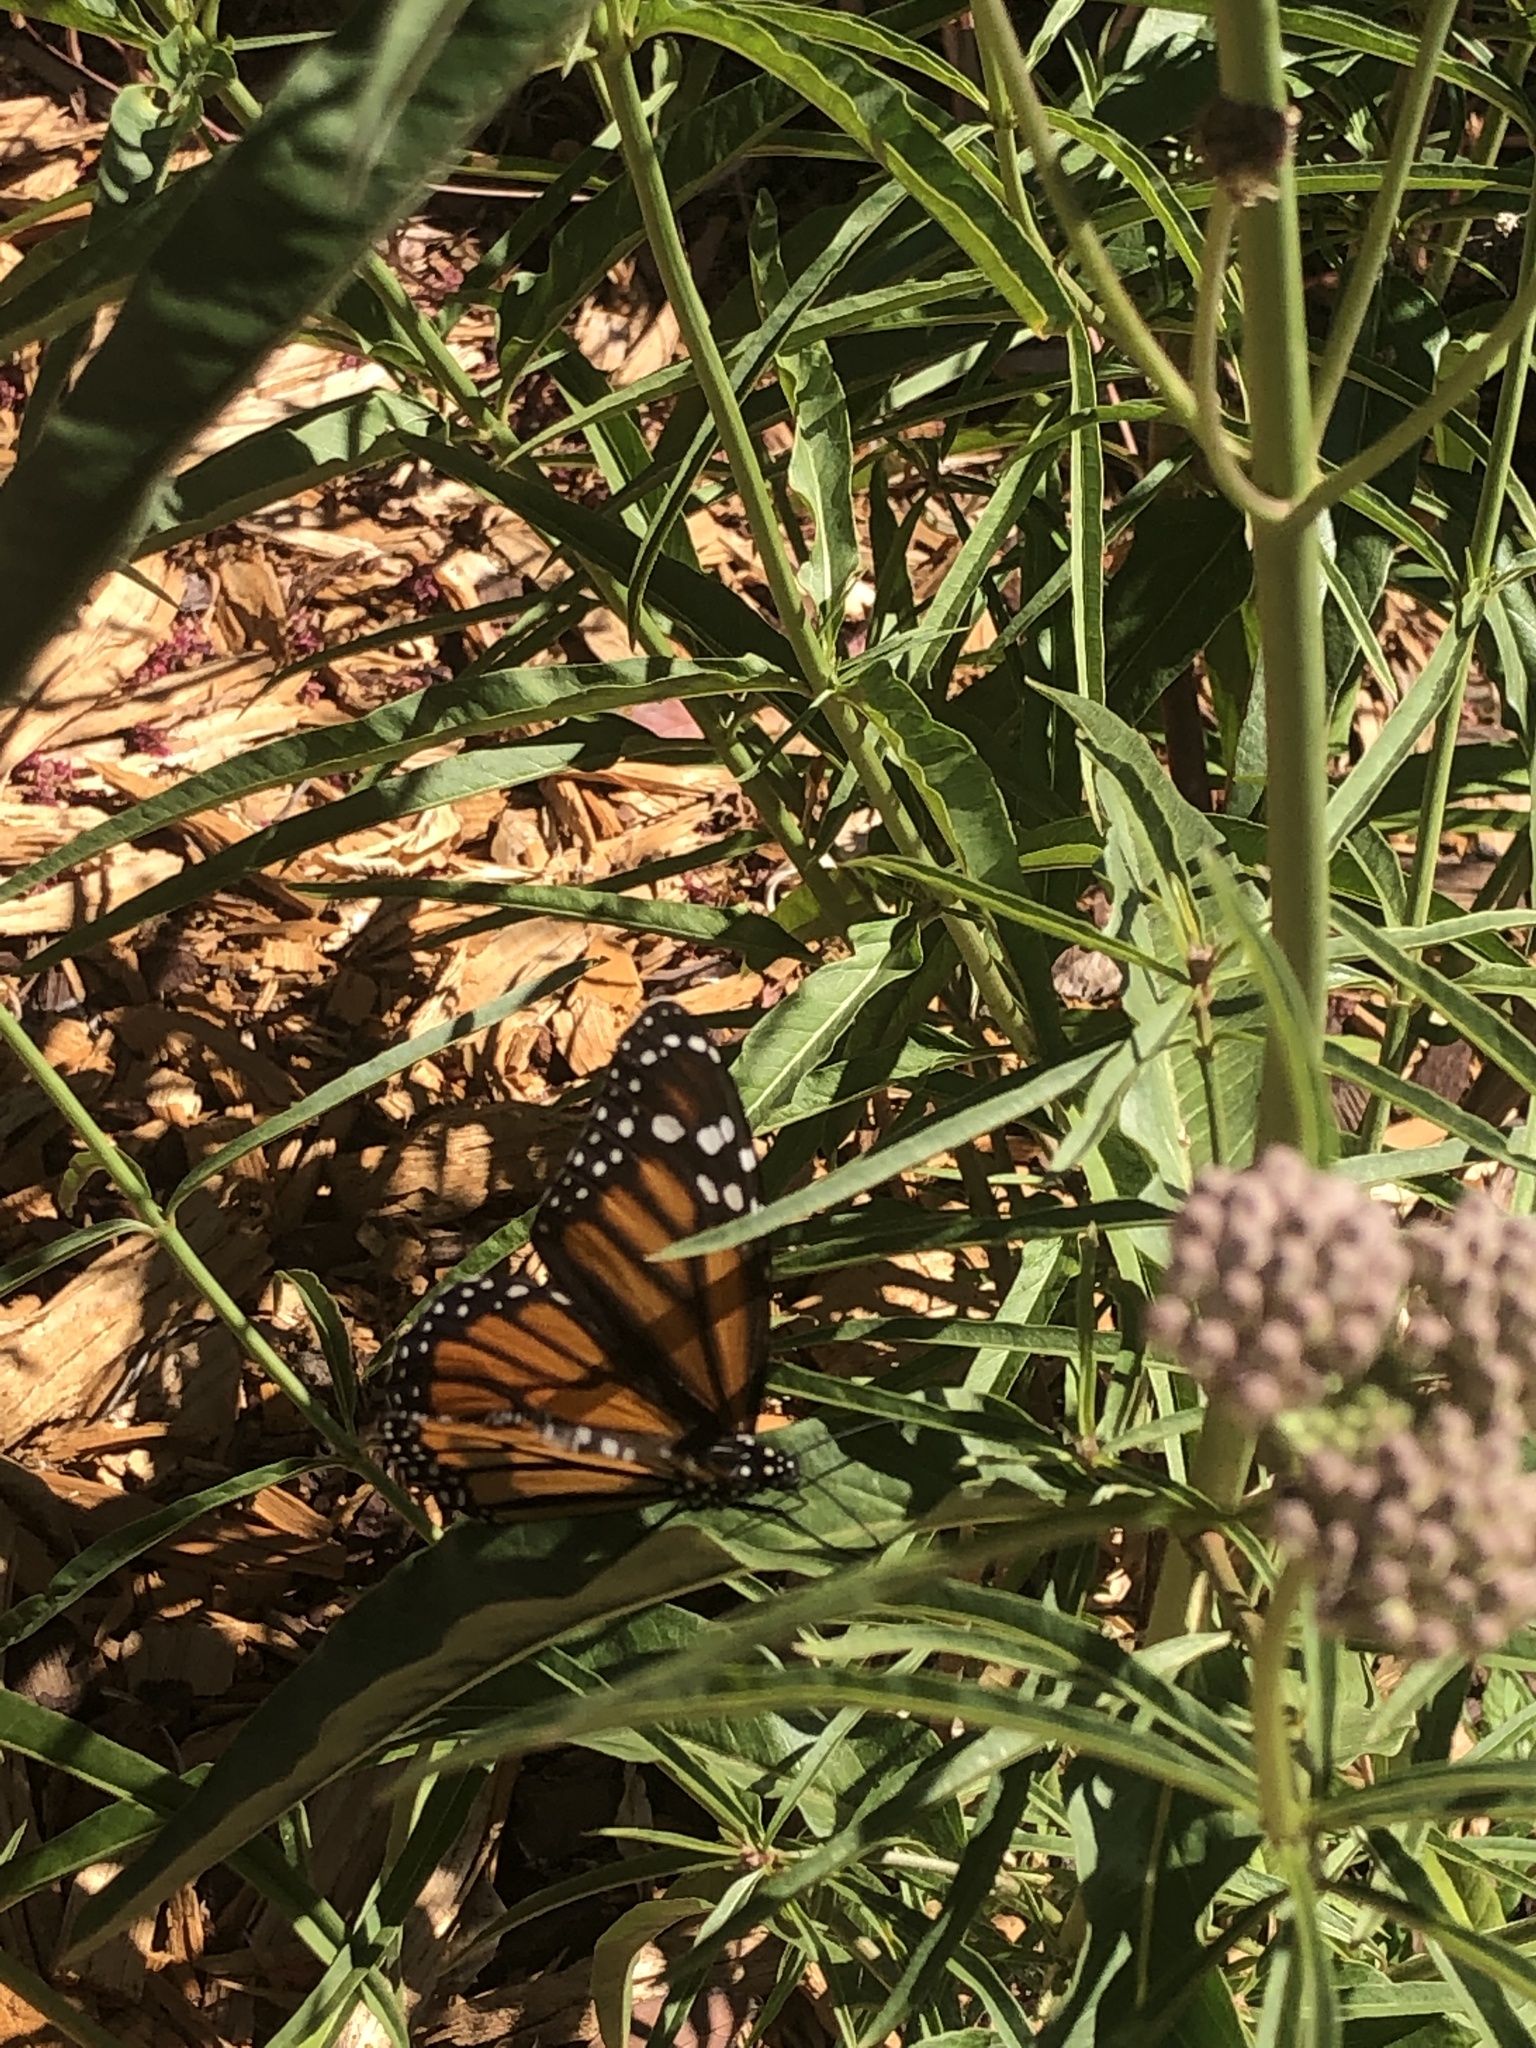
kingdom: Animalia
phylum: Arthropoda
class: Insecta
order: Lepidoptera
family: Nymphalidae
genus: Danaus
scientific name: Danaus plexippus
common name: Monarch
